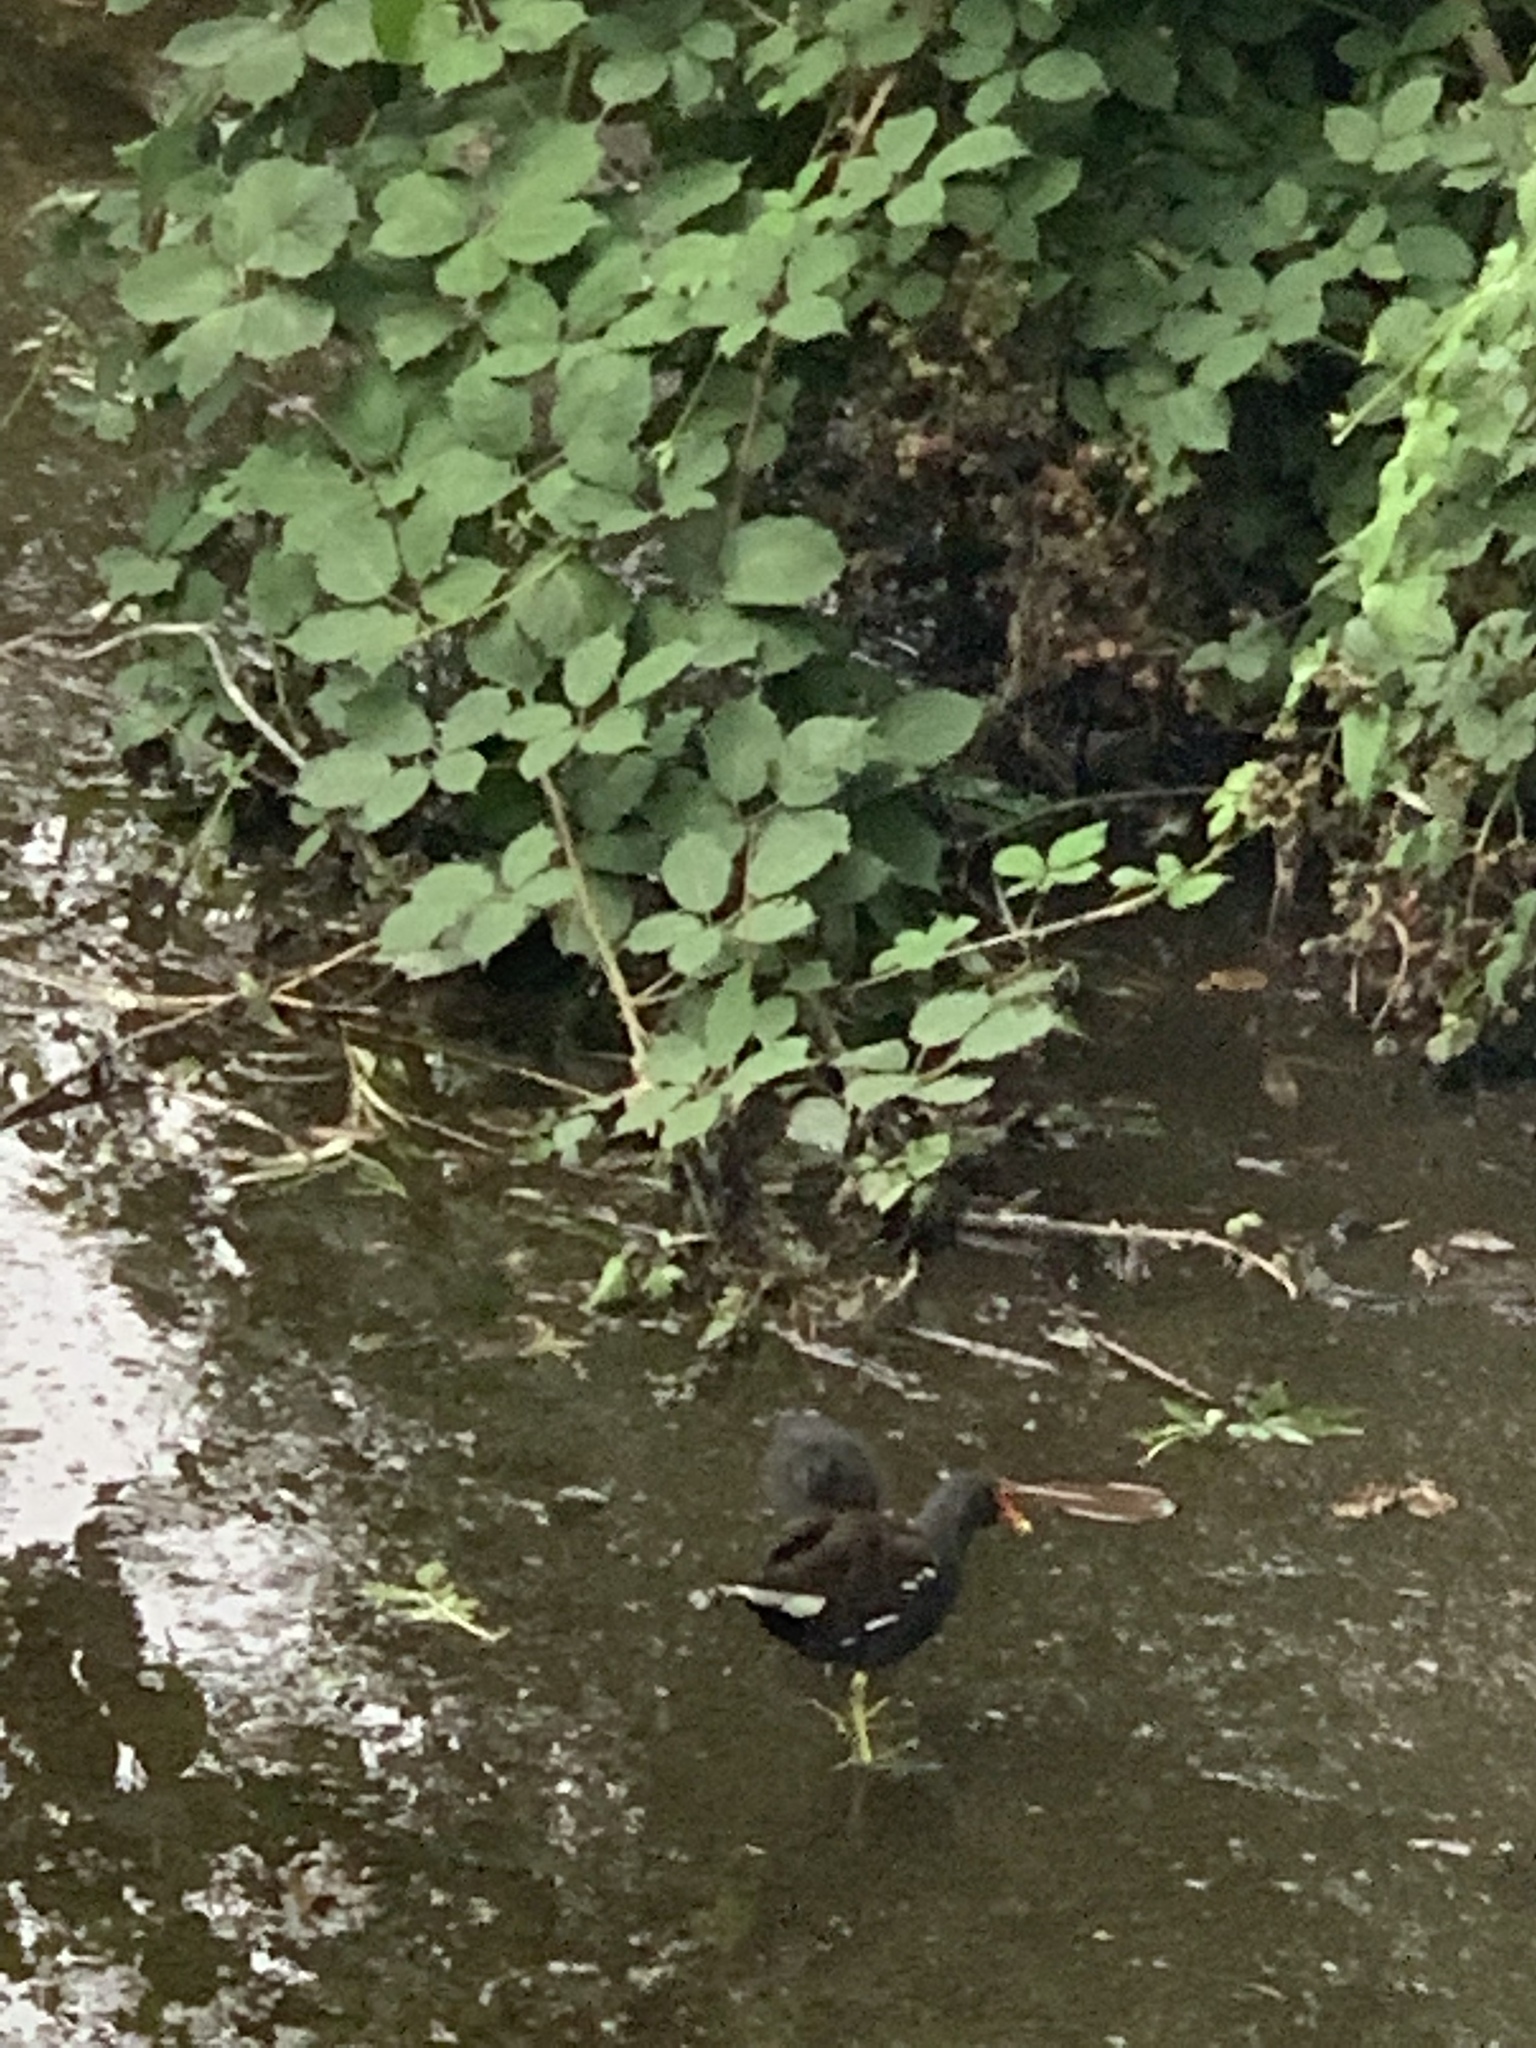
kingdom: Animalia
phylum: Chordata
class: Aves
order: Gruiformes
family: Rallidae
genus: Gallinula
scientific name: Gallinula chloropus
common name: Common moorhen
